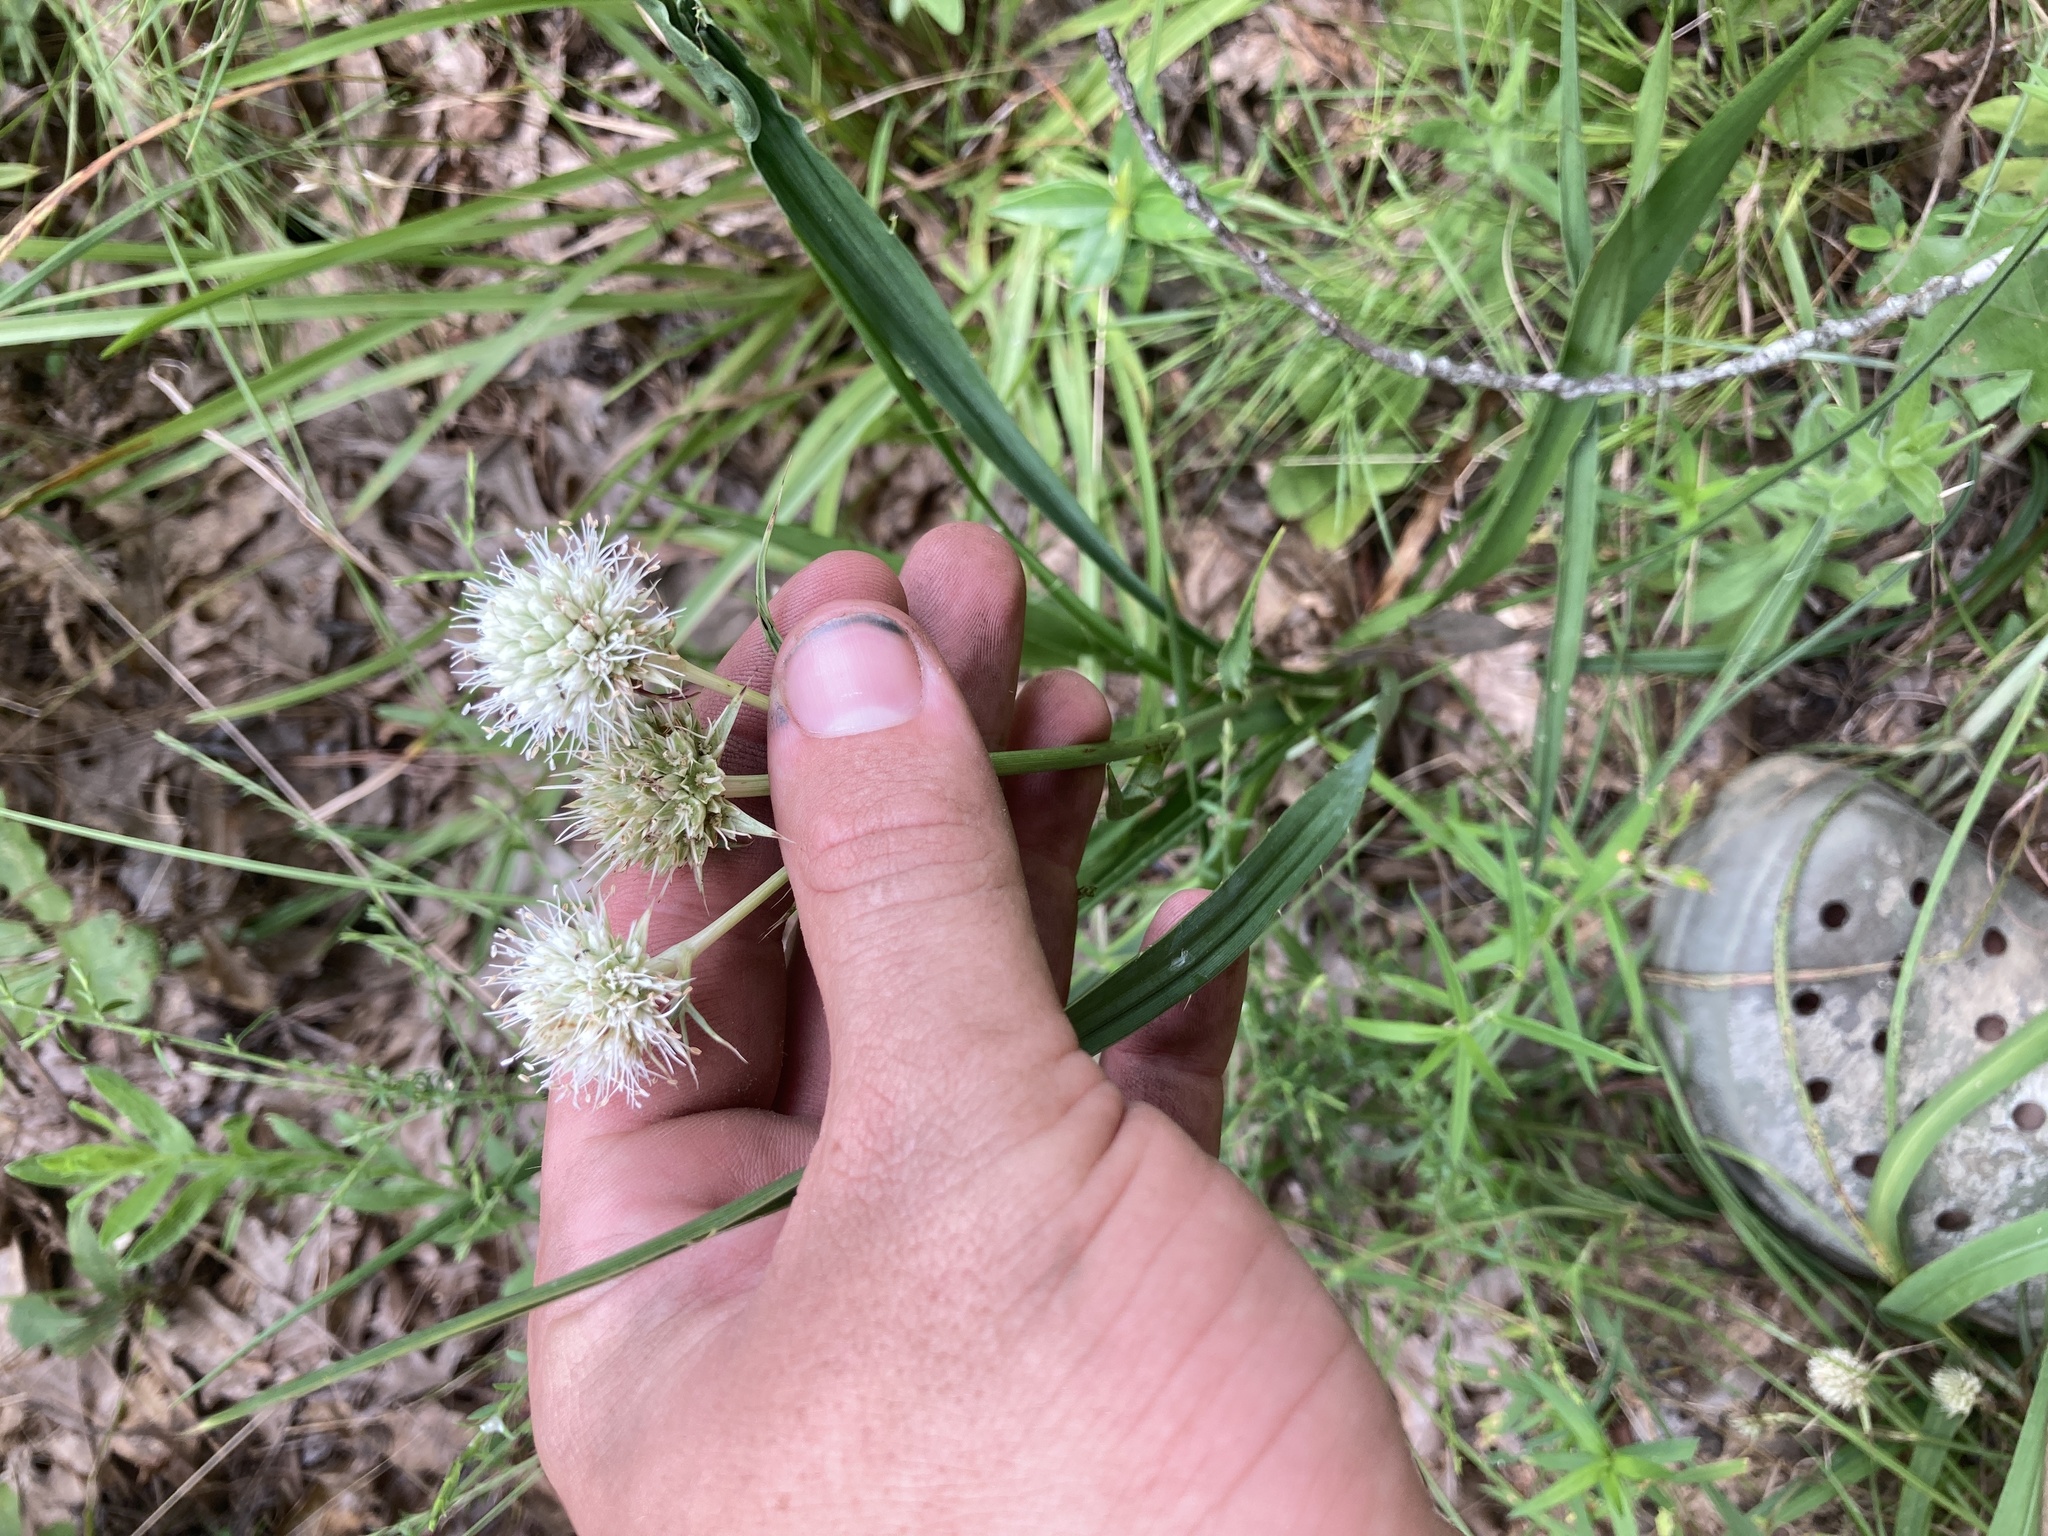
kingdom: Plantae
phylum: Tracheophyta
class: Magnoliopsida
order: Apiales
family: Apiaceae
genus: Eryngium
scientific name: Eryngium yuccifolium
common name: Button eryngo
